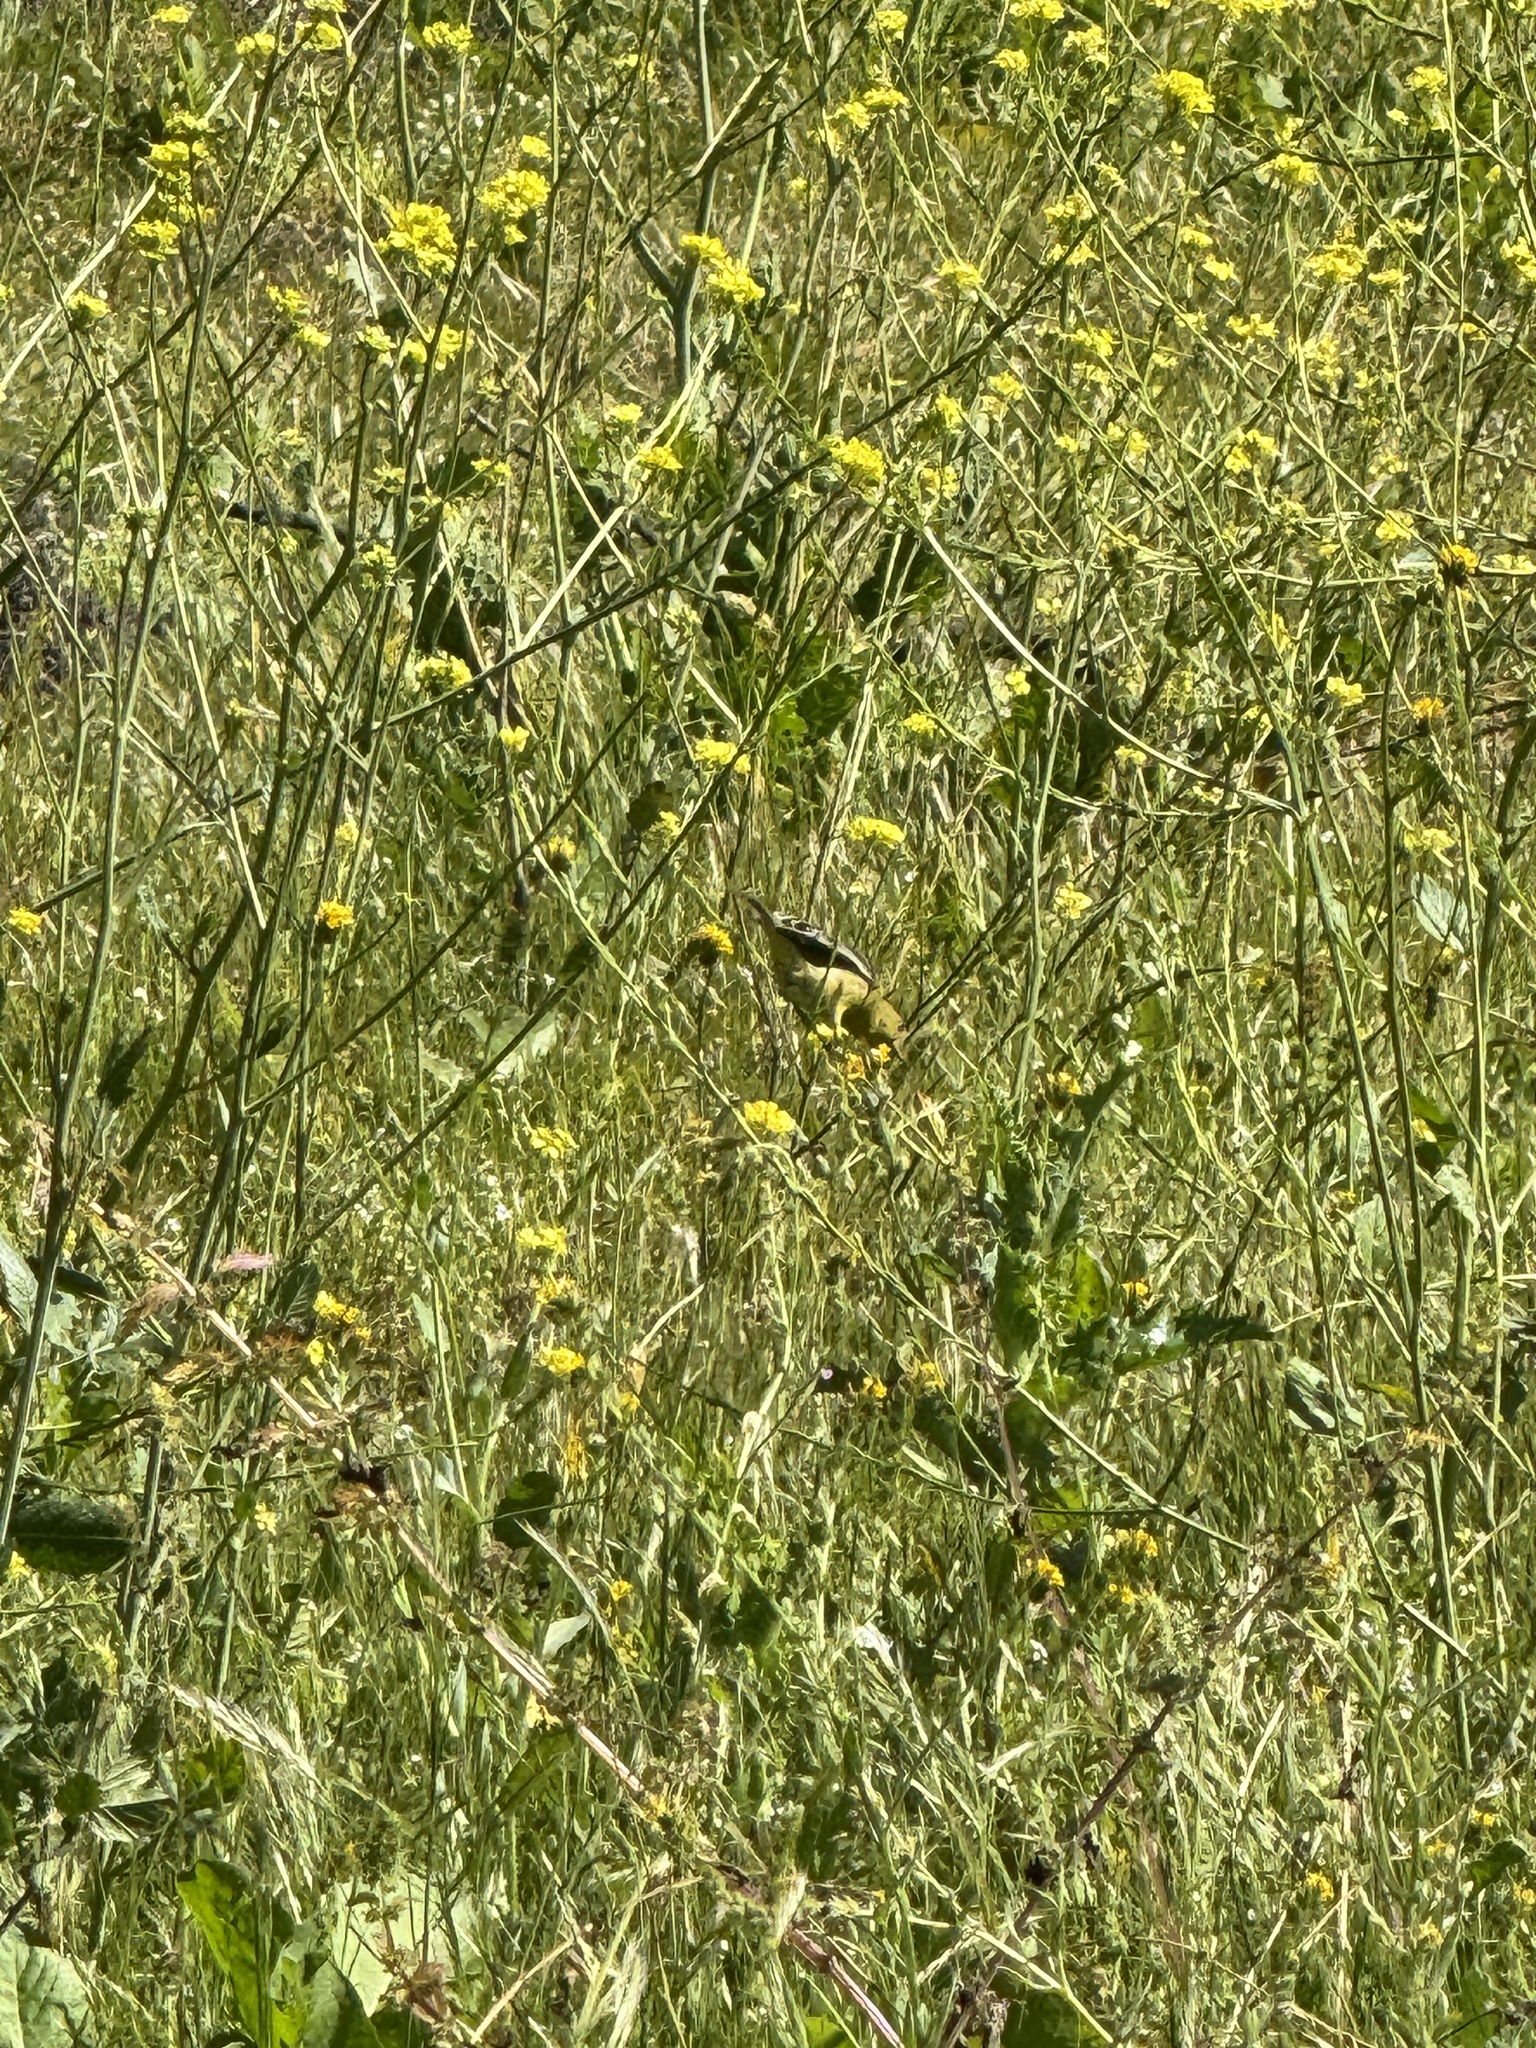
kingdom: Animalia
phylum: Chordata
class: Aves
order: Passeriformes
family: Fringillidae
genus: Spinus
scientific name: Spinus psaltria
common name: Lesser goldfinch
